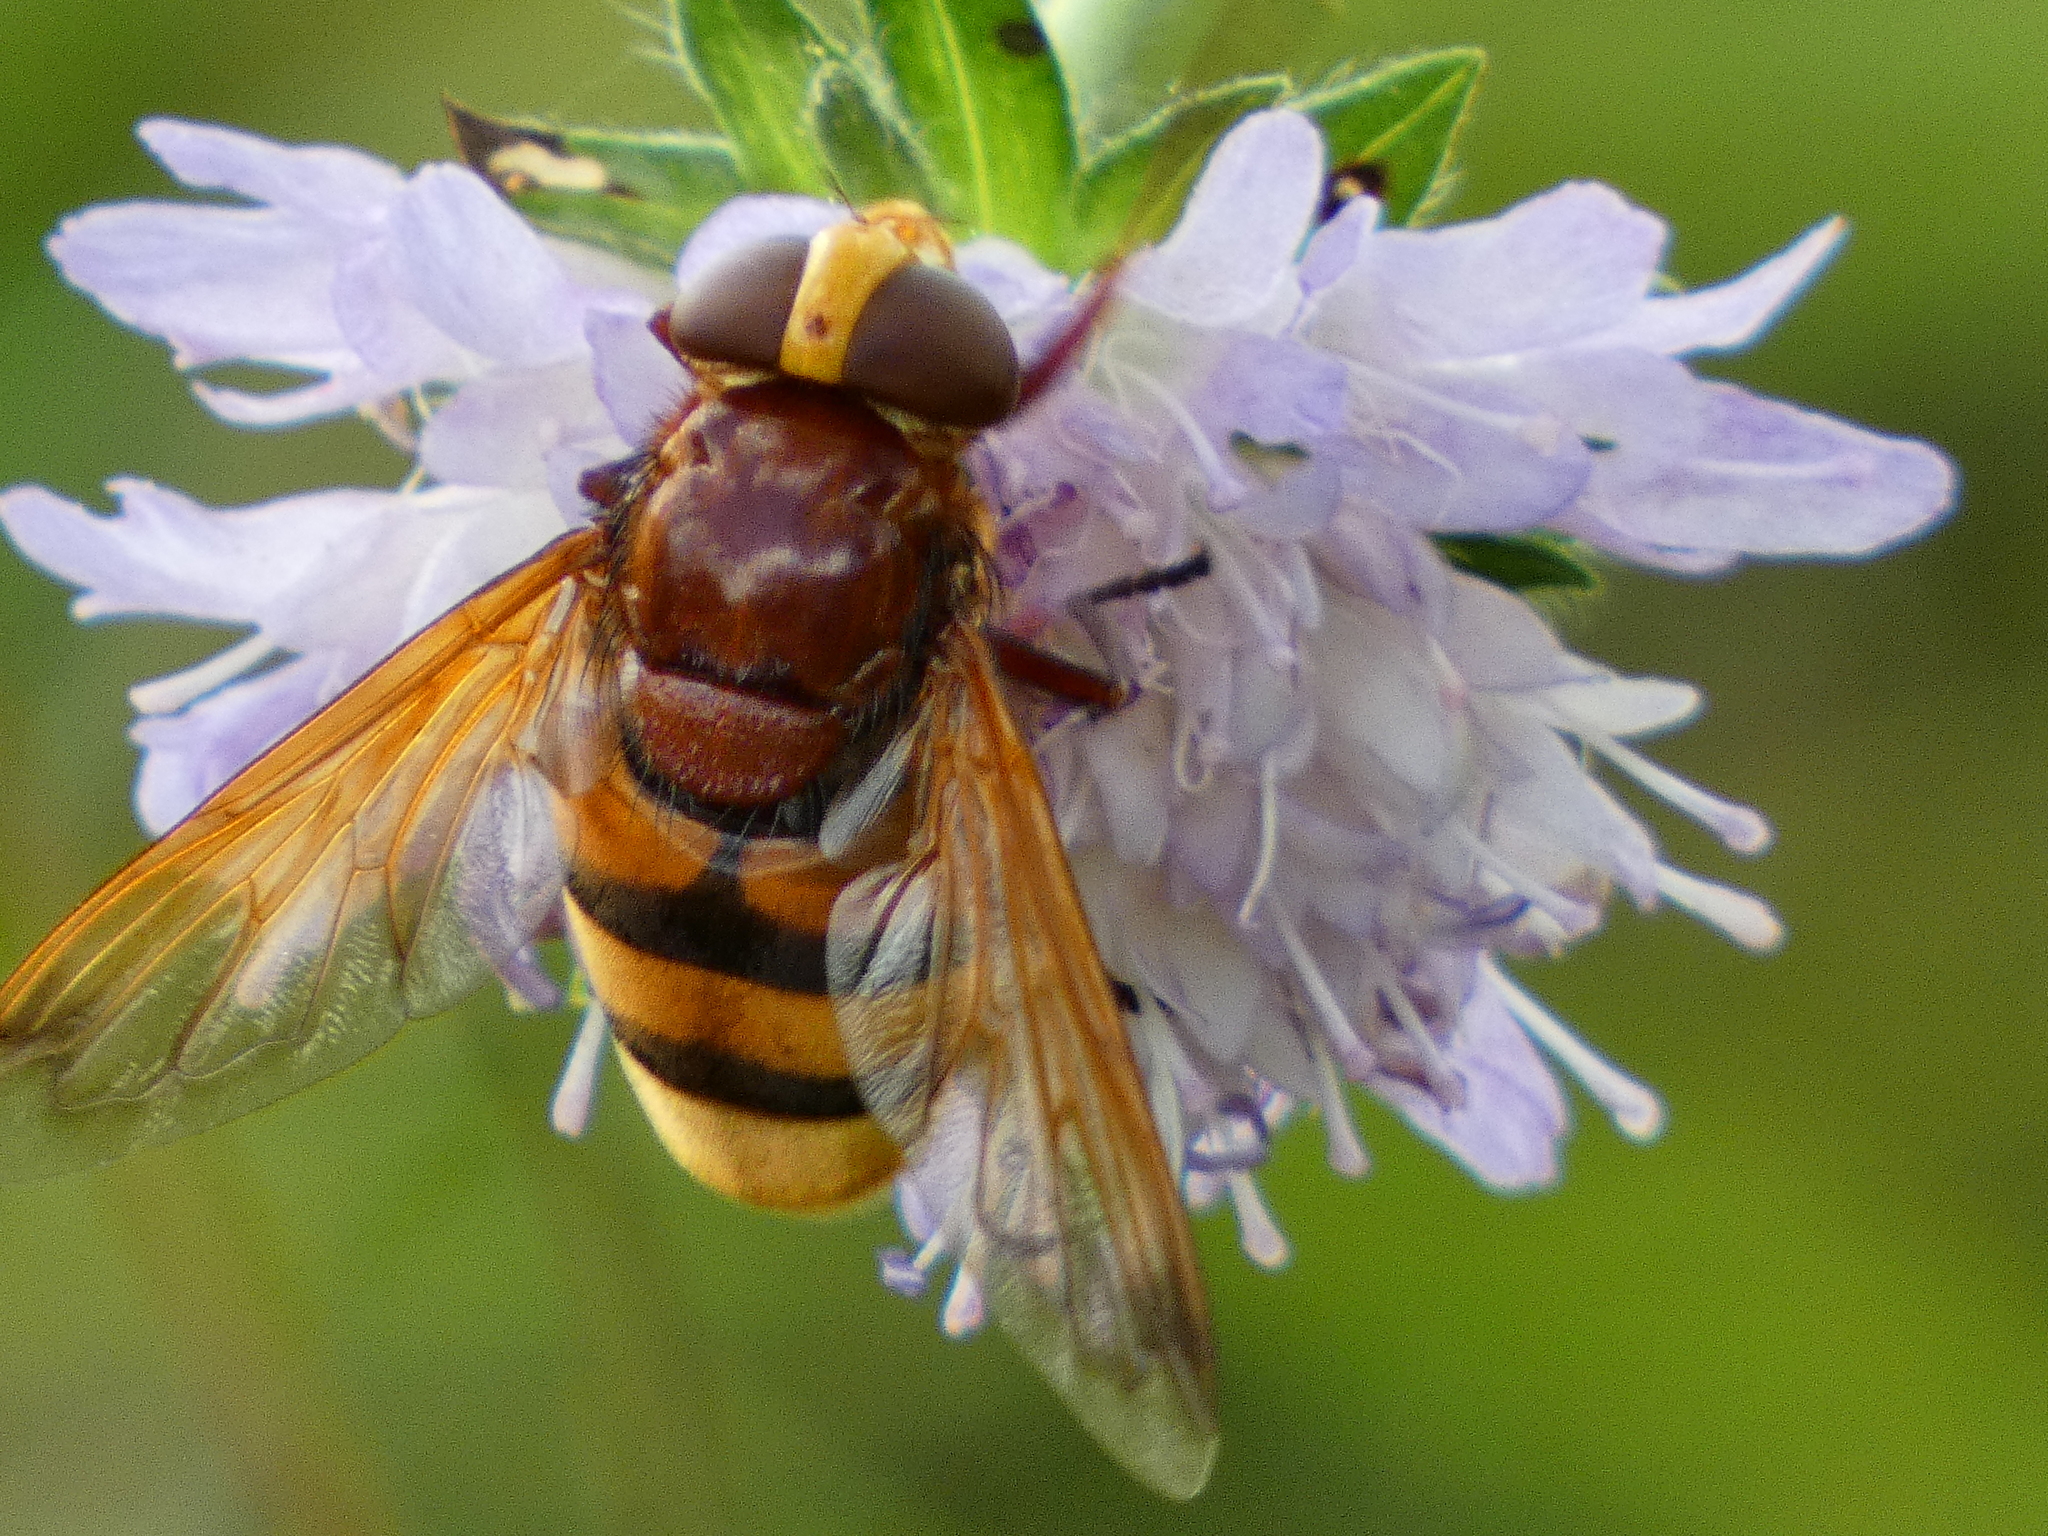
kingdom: Animalia
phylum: Arthropoda
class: Insecta
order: Diptera
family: Syrphidae
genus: Volucella
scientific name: Volucella zonaria
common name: Hornet hoverfly
